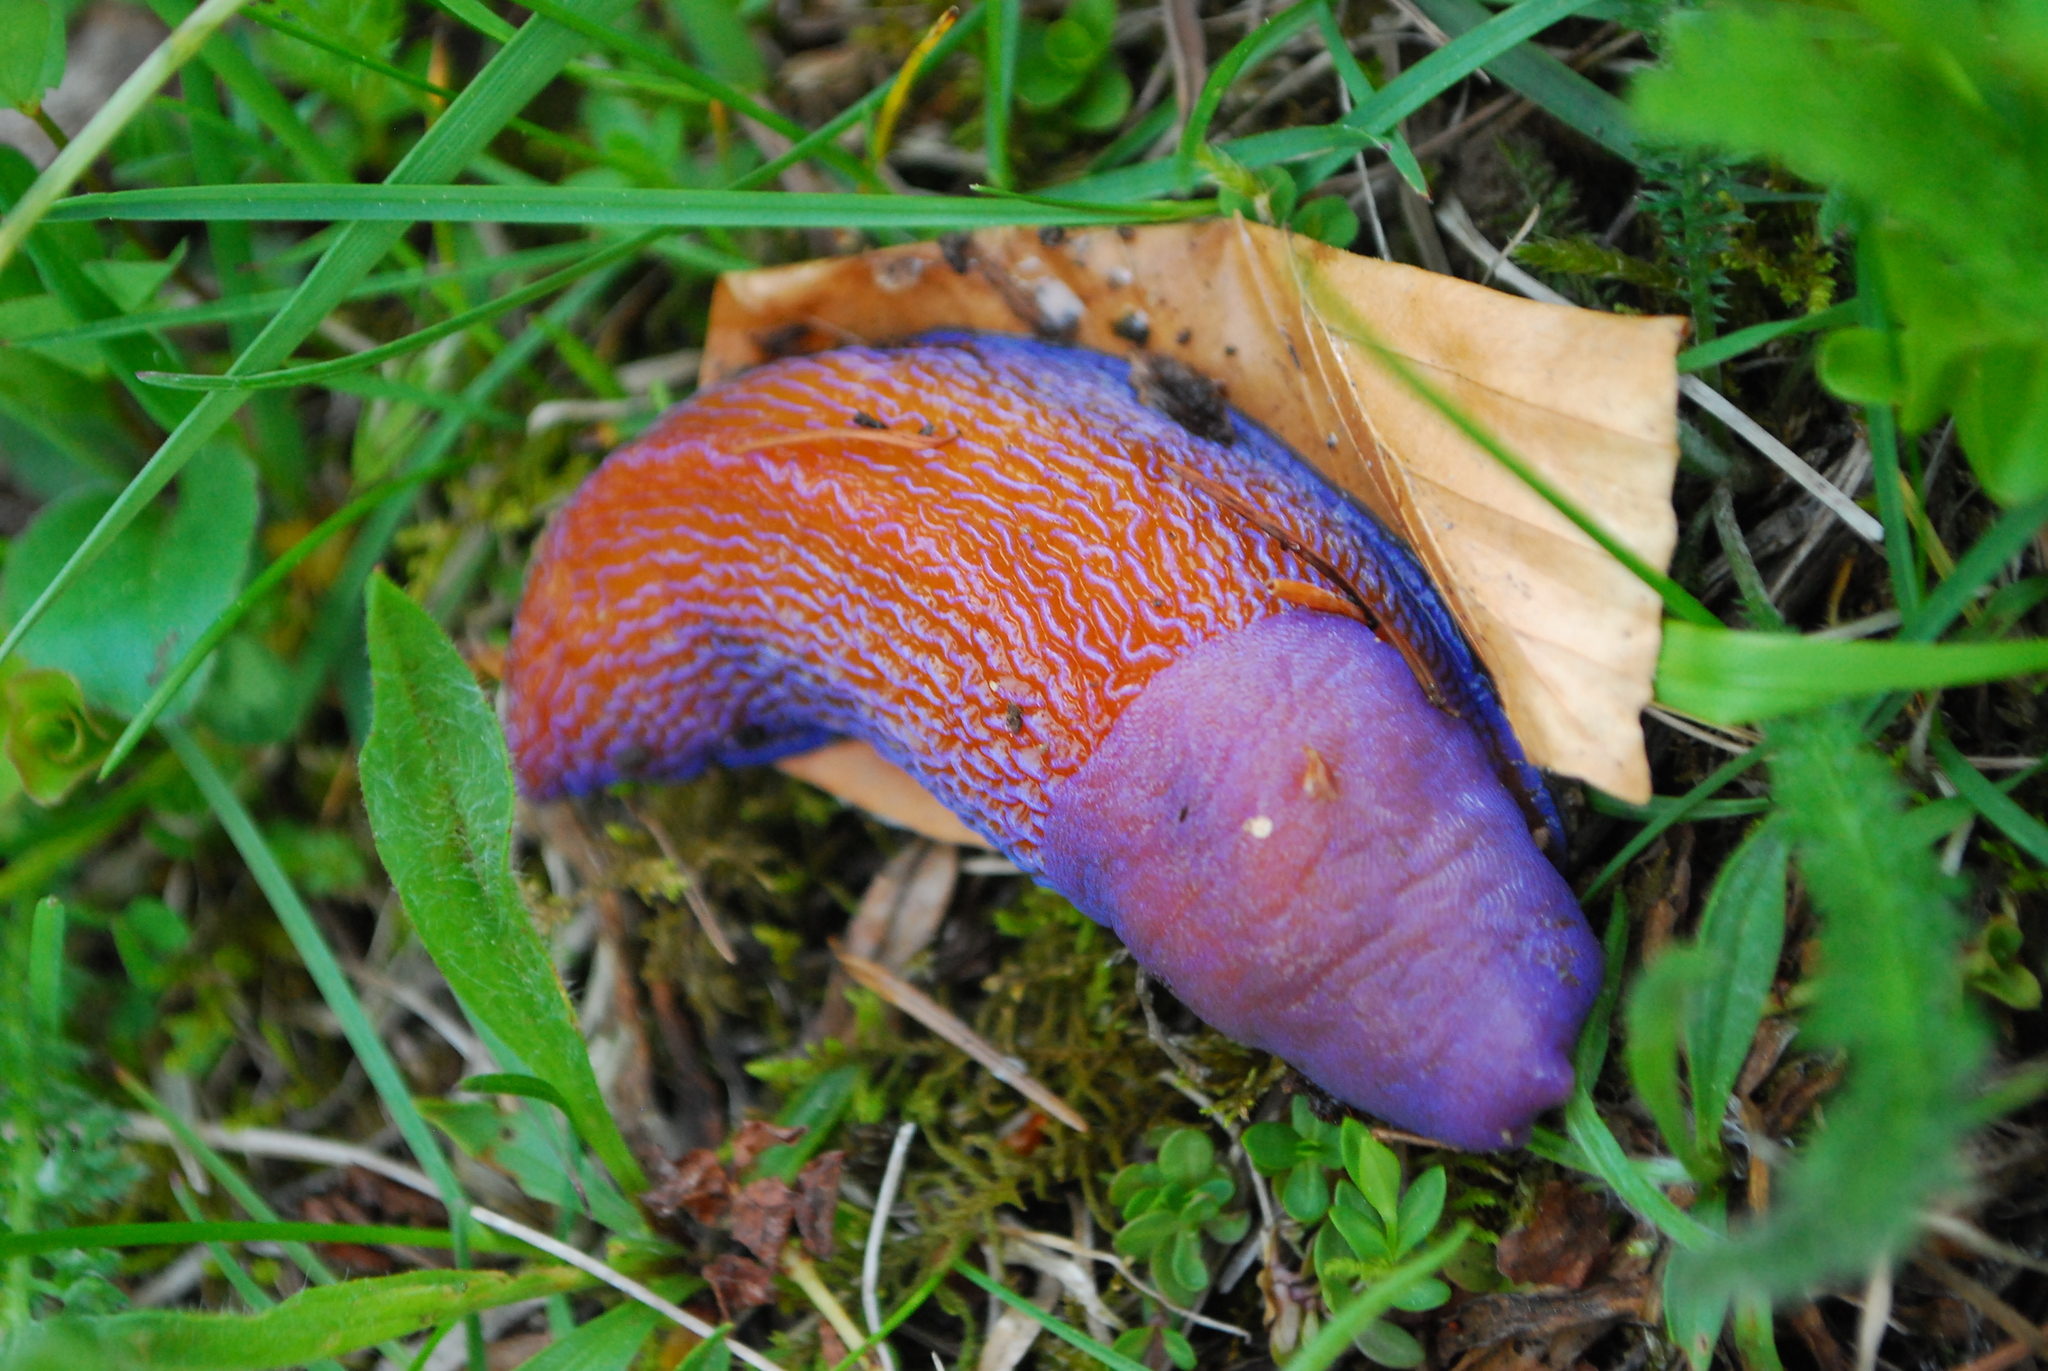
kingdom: Animalia
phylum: Mollusca
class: Gastropoda
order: Stylommatophora
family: Limacidae
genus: Bielzia
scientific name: Bielzia coerulans
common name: Carpathian blue slug
